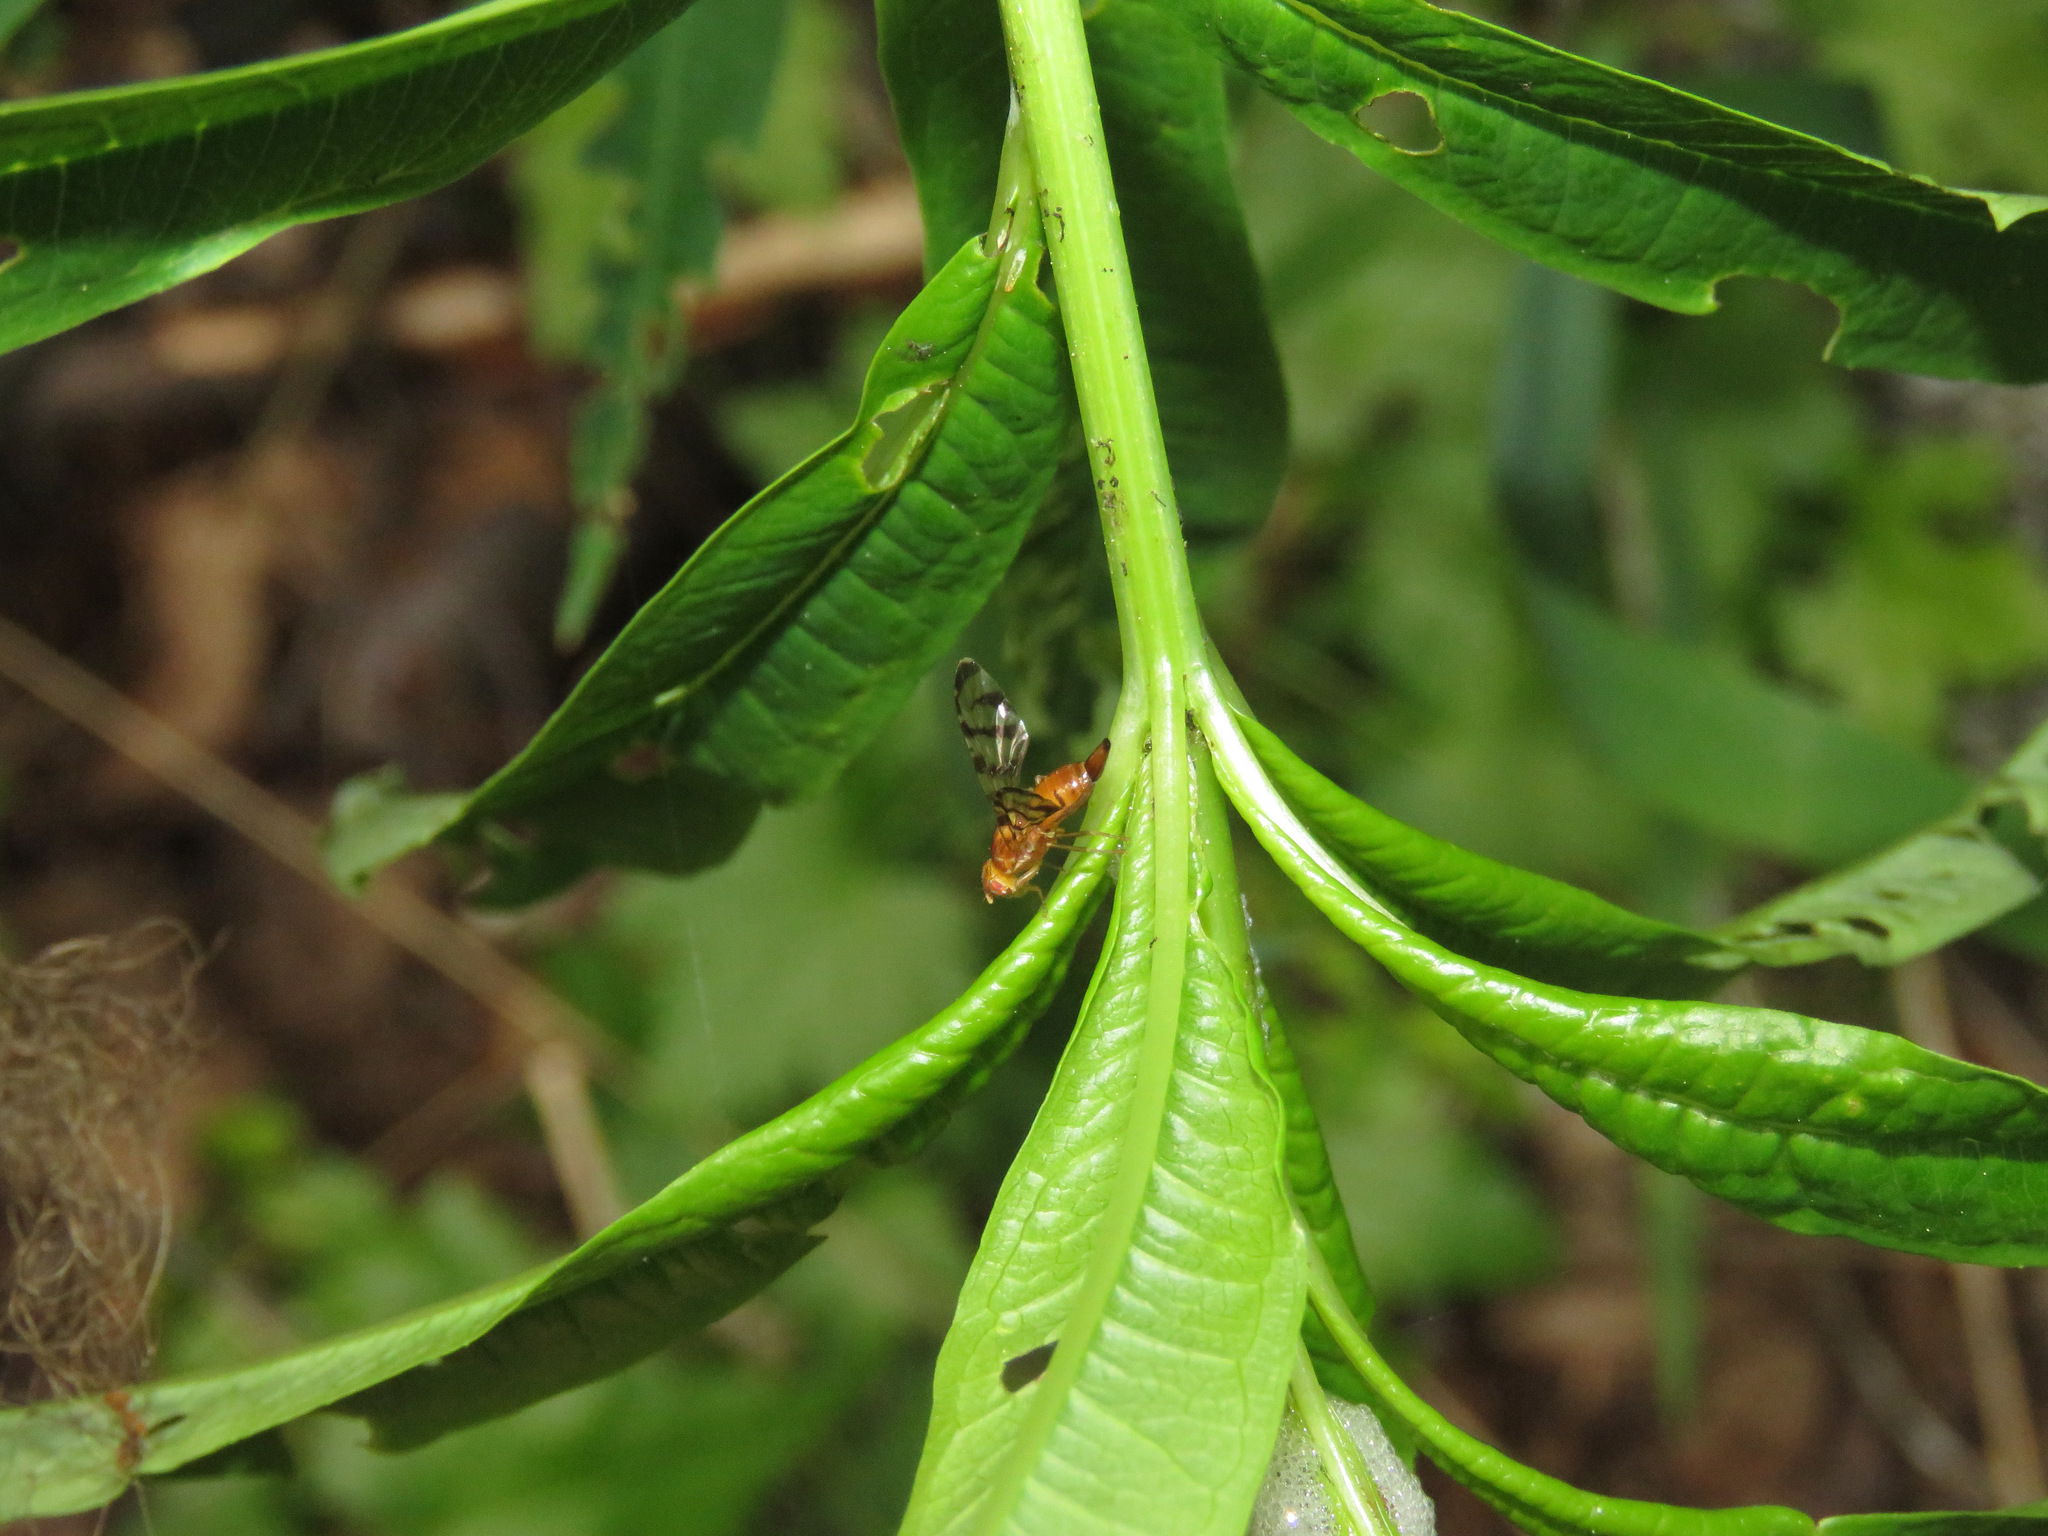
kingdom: Animalia
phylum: Arthropoda
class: Insecta
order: Diptera
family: Tephritidae
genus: Euphranta
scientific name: Euphranta canadensis
